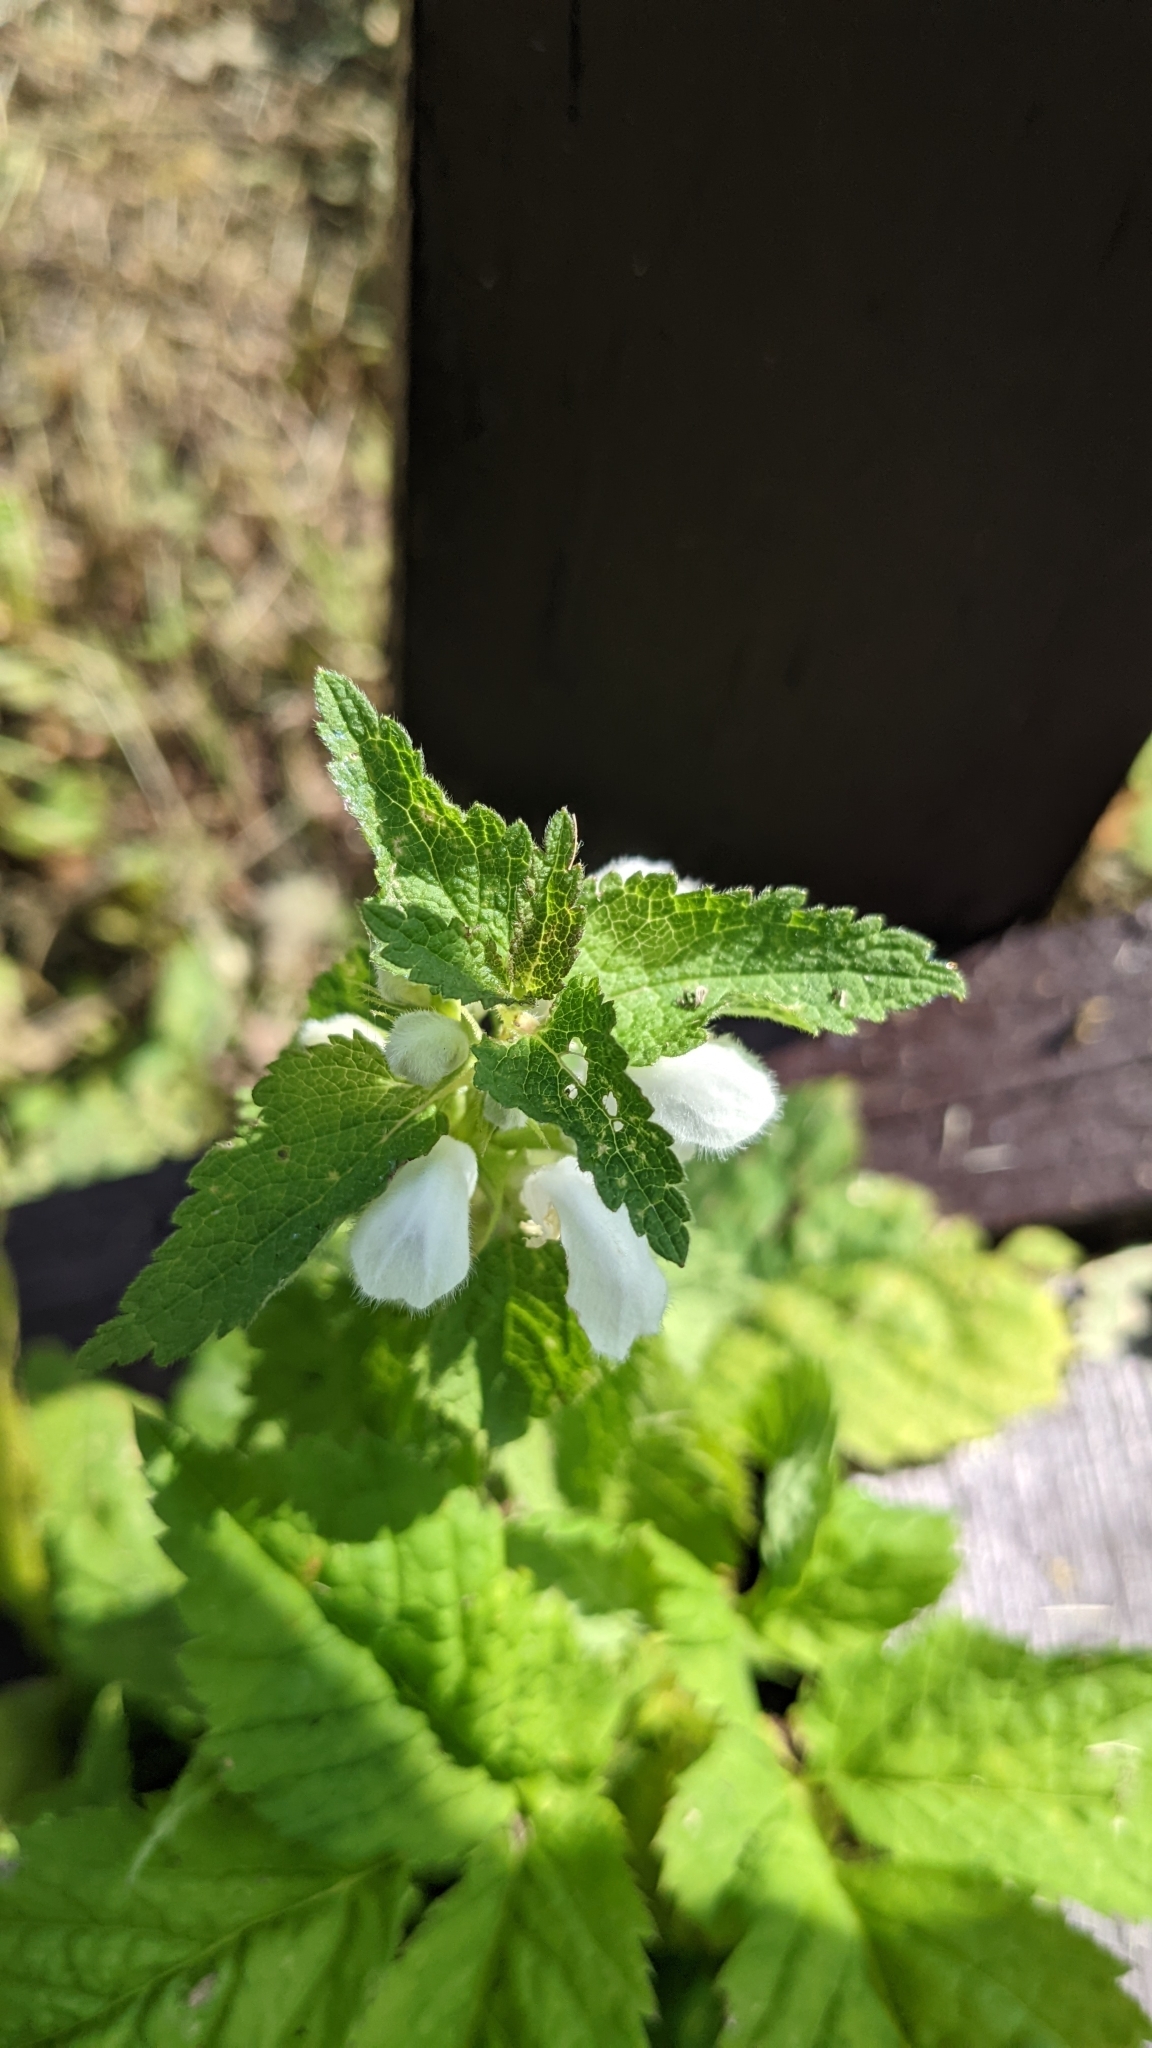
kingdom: Plantae
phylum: Tracheophyta
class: Magnoliopsida
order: Lamiales
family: Lamiaceae
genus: Lamium
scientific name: Lamium album
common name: White dead-nettle
